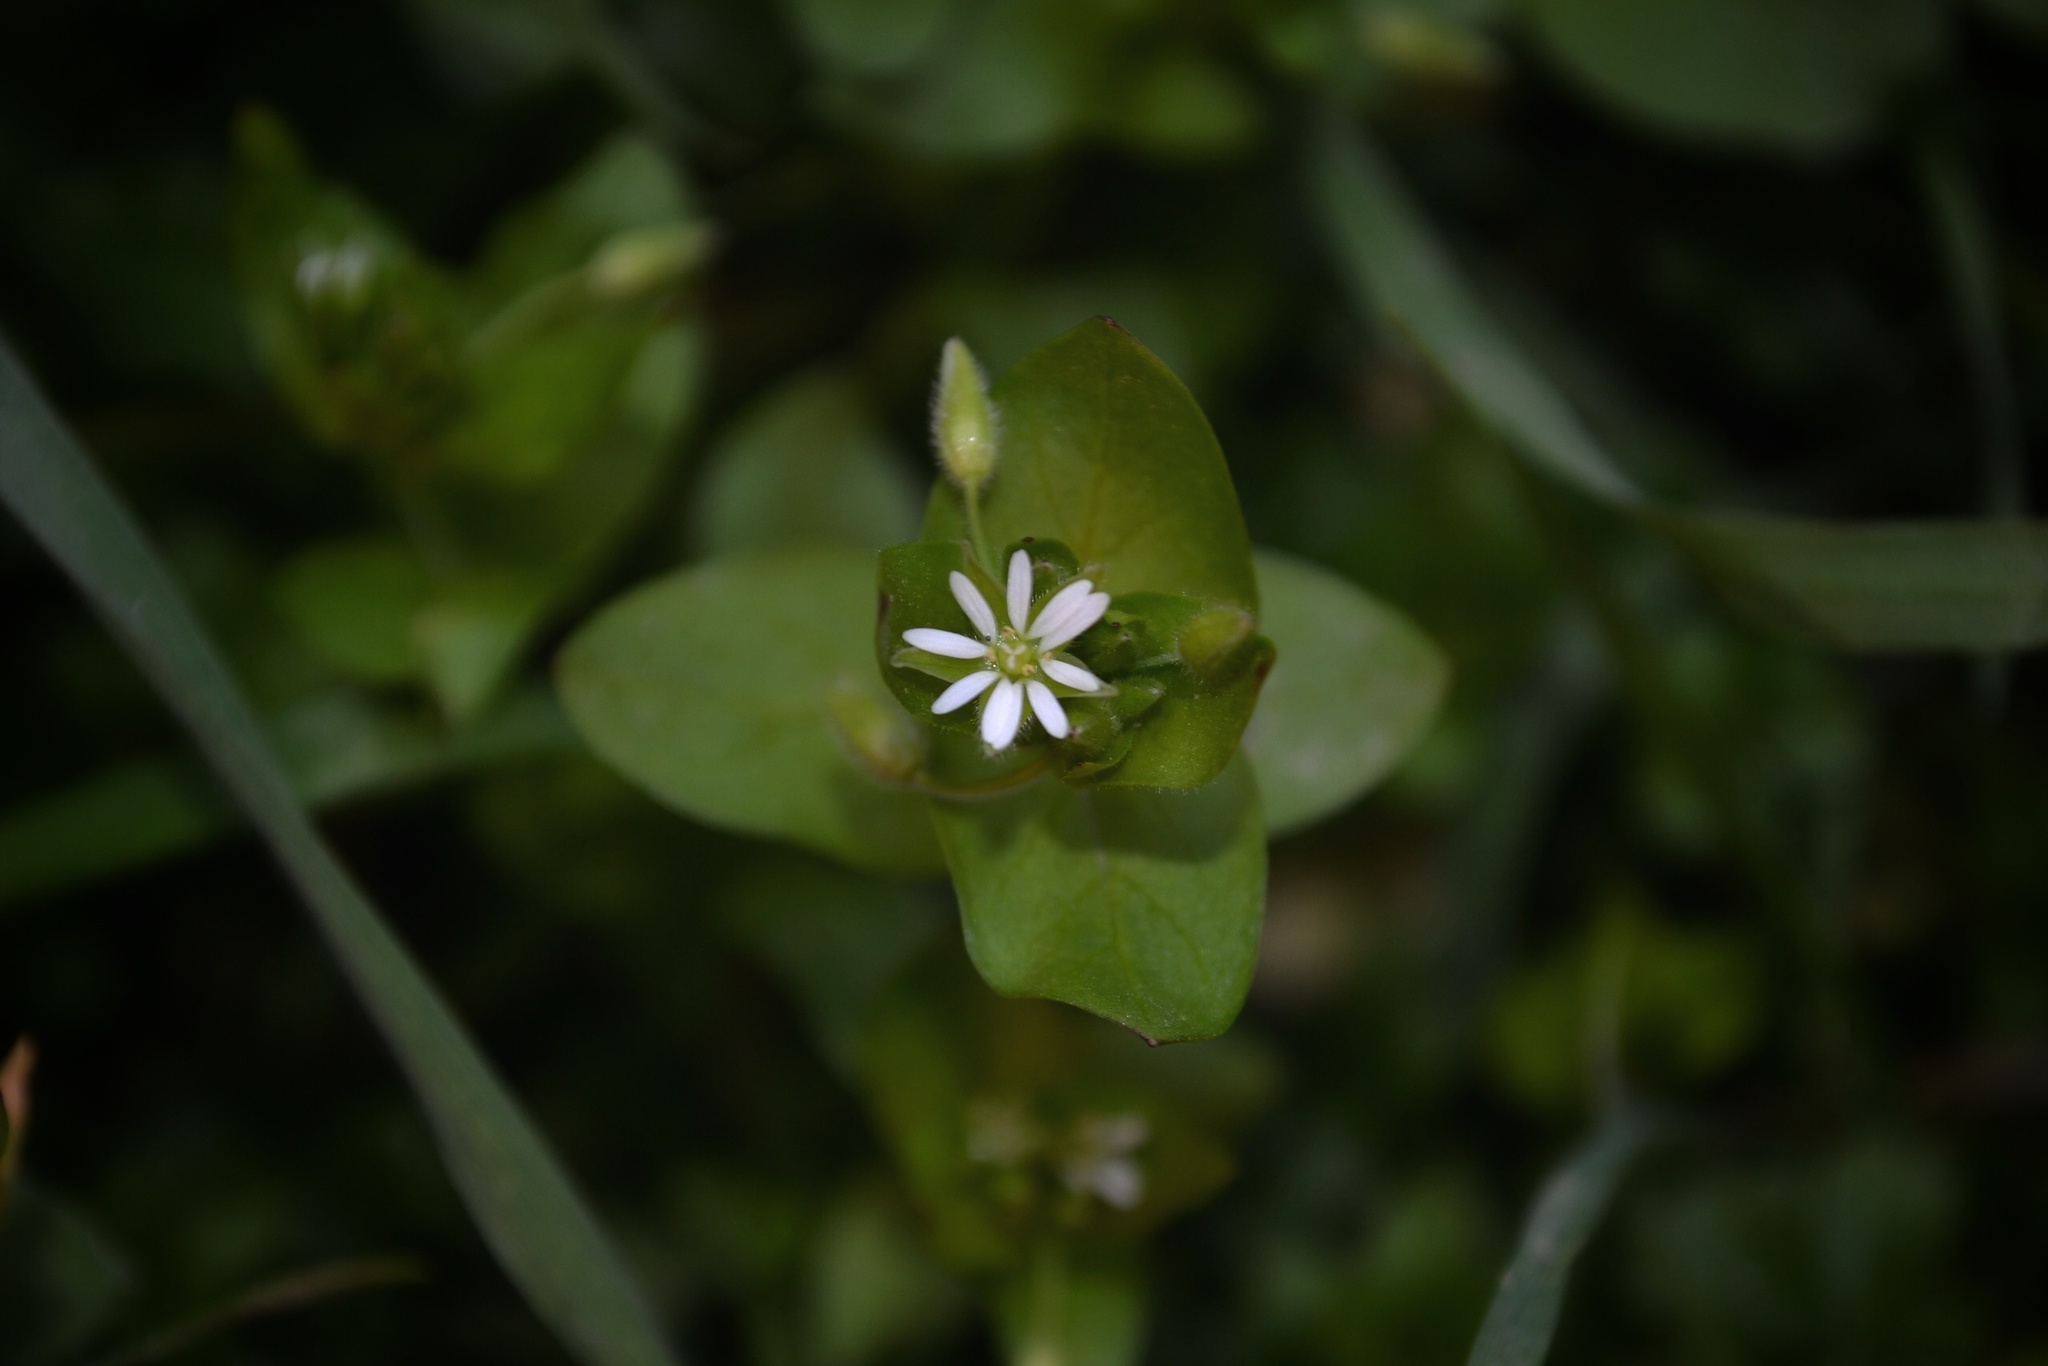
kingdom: Plantae
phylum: Tracheophyta
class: Magnoliopsida
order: Caryophyllales
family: Caryophyllaceae
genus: Stellaria
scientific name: Stellaria media
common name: Common chickweed
